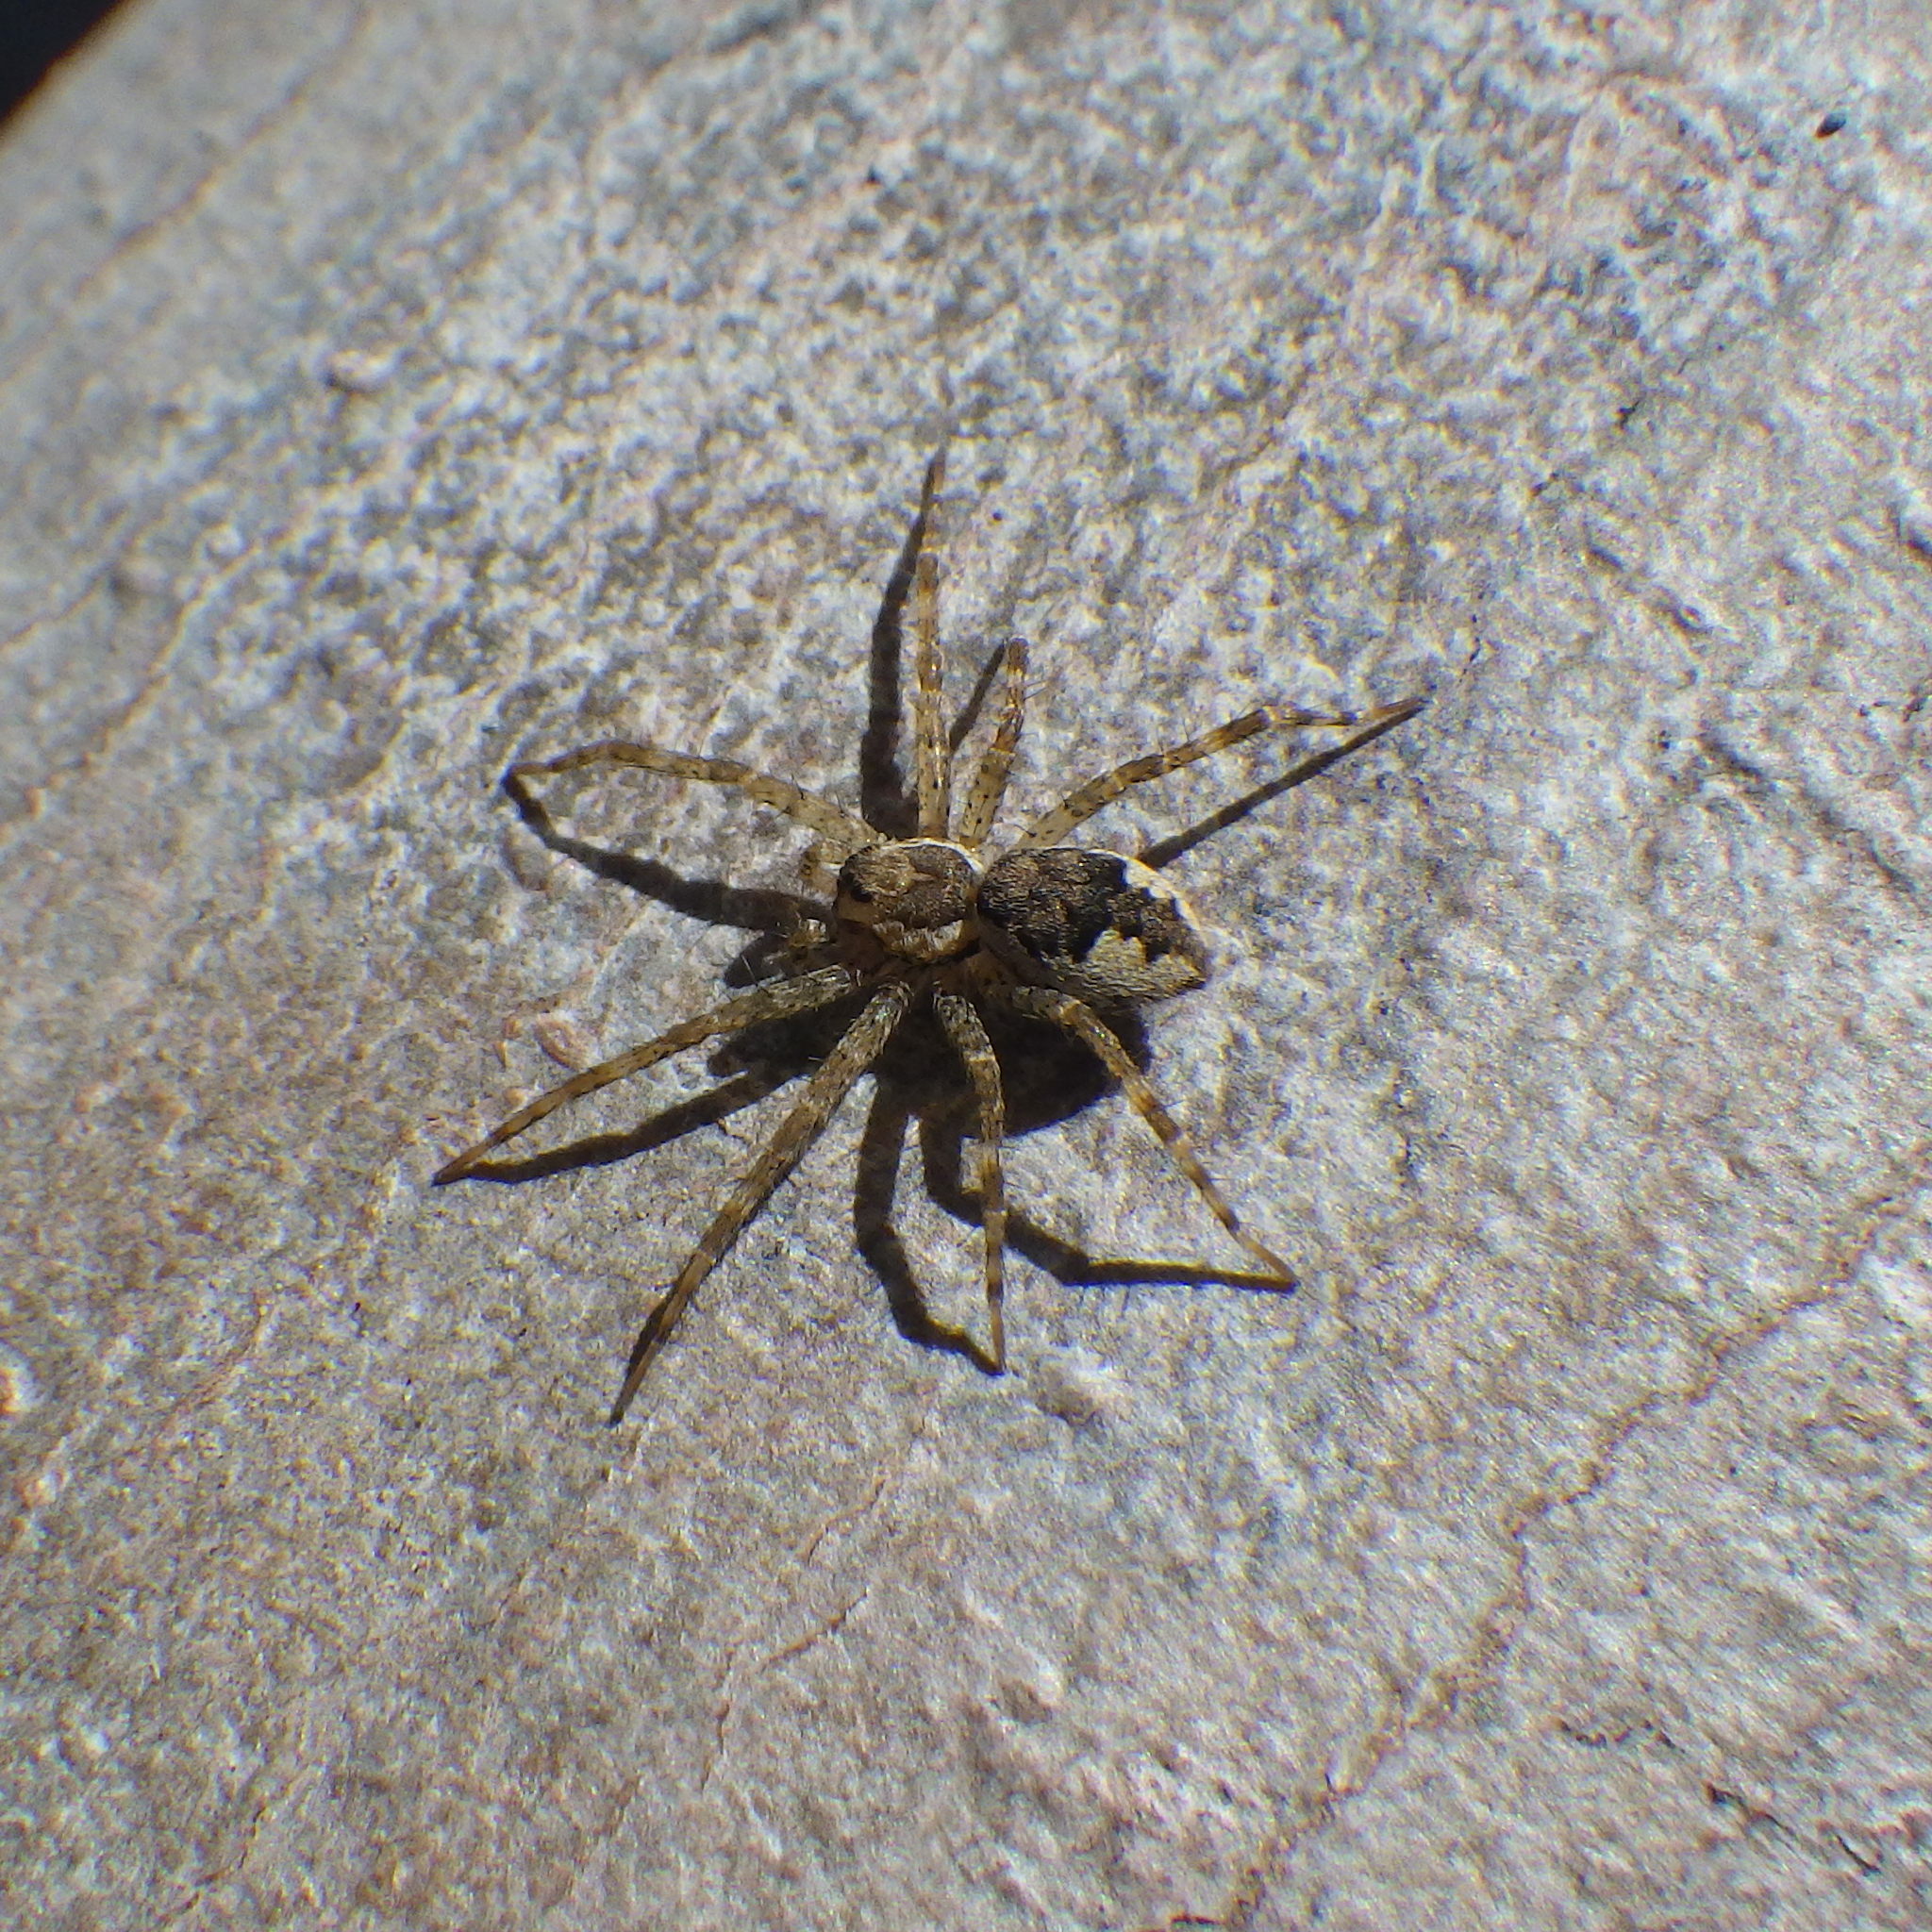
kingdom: Animalia
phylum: Arthropoda
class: Arachnida
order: Araneae
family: Pisauridae
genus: Dolomedes
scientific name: Dolomedes tenebrosus
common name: Dark fishing spider
